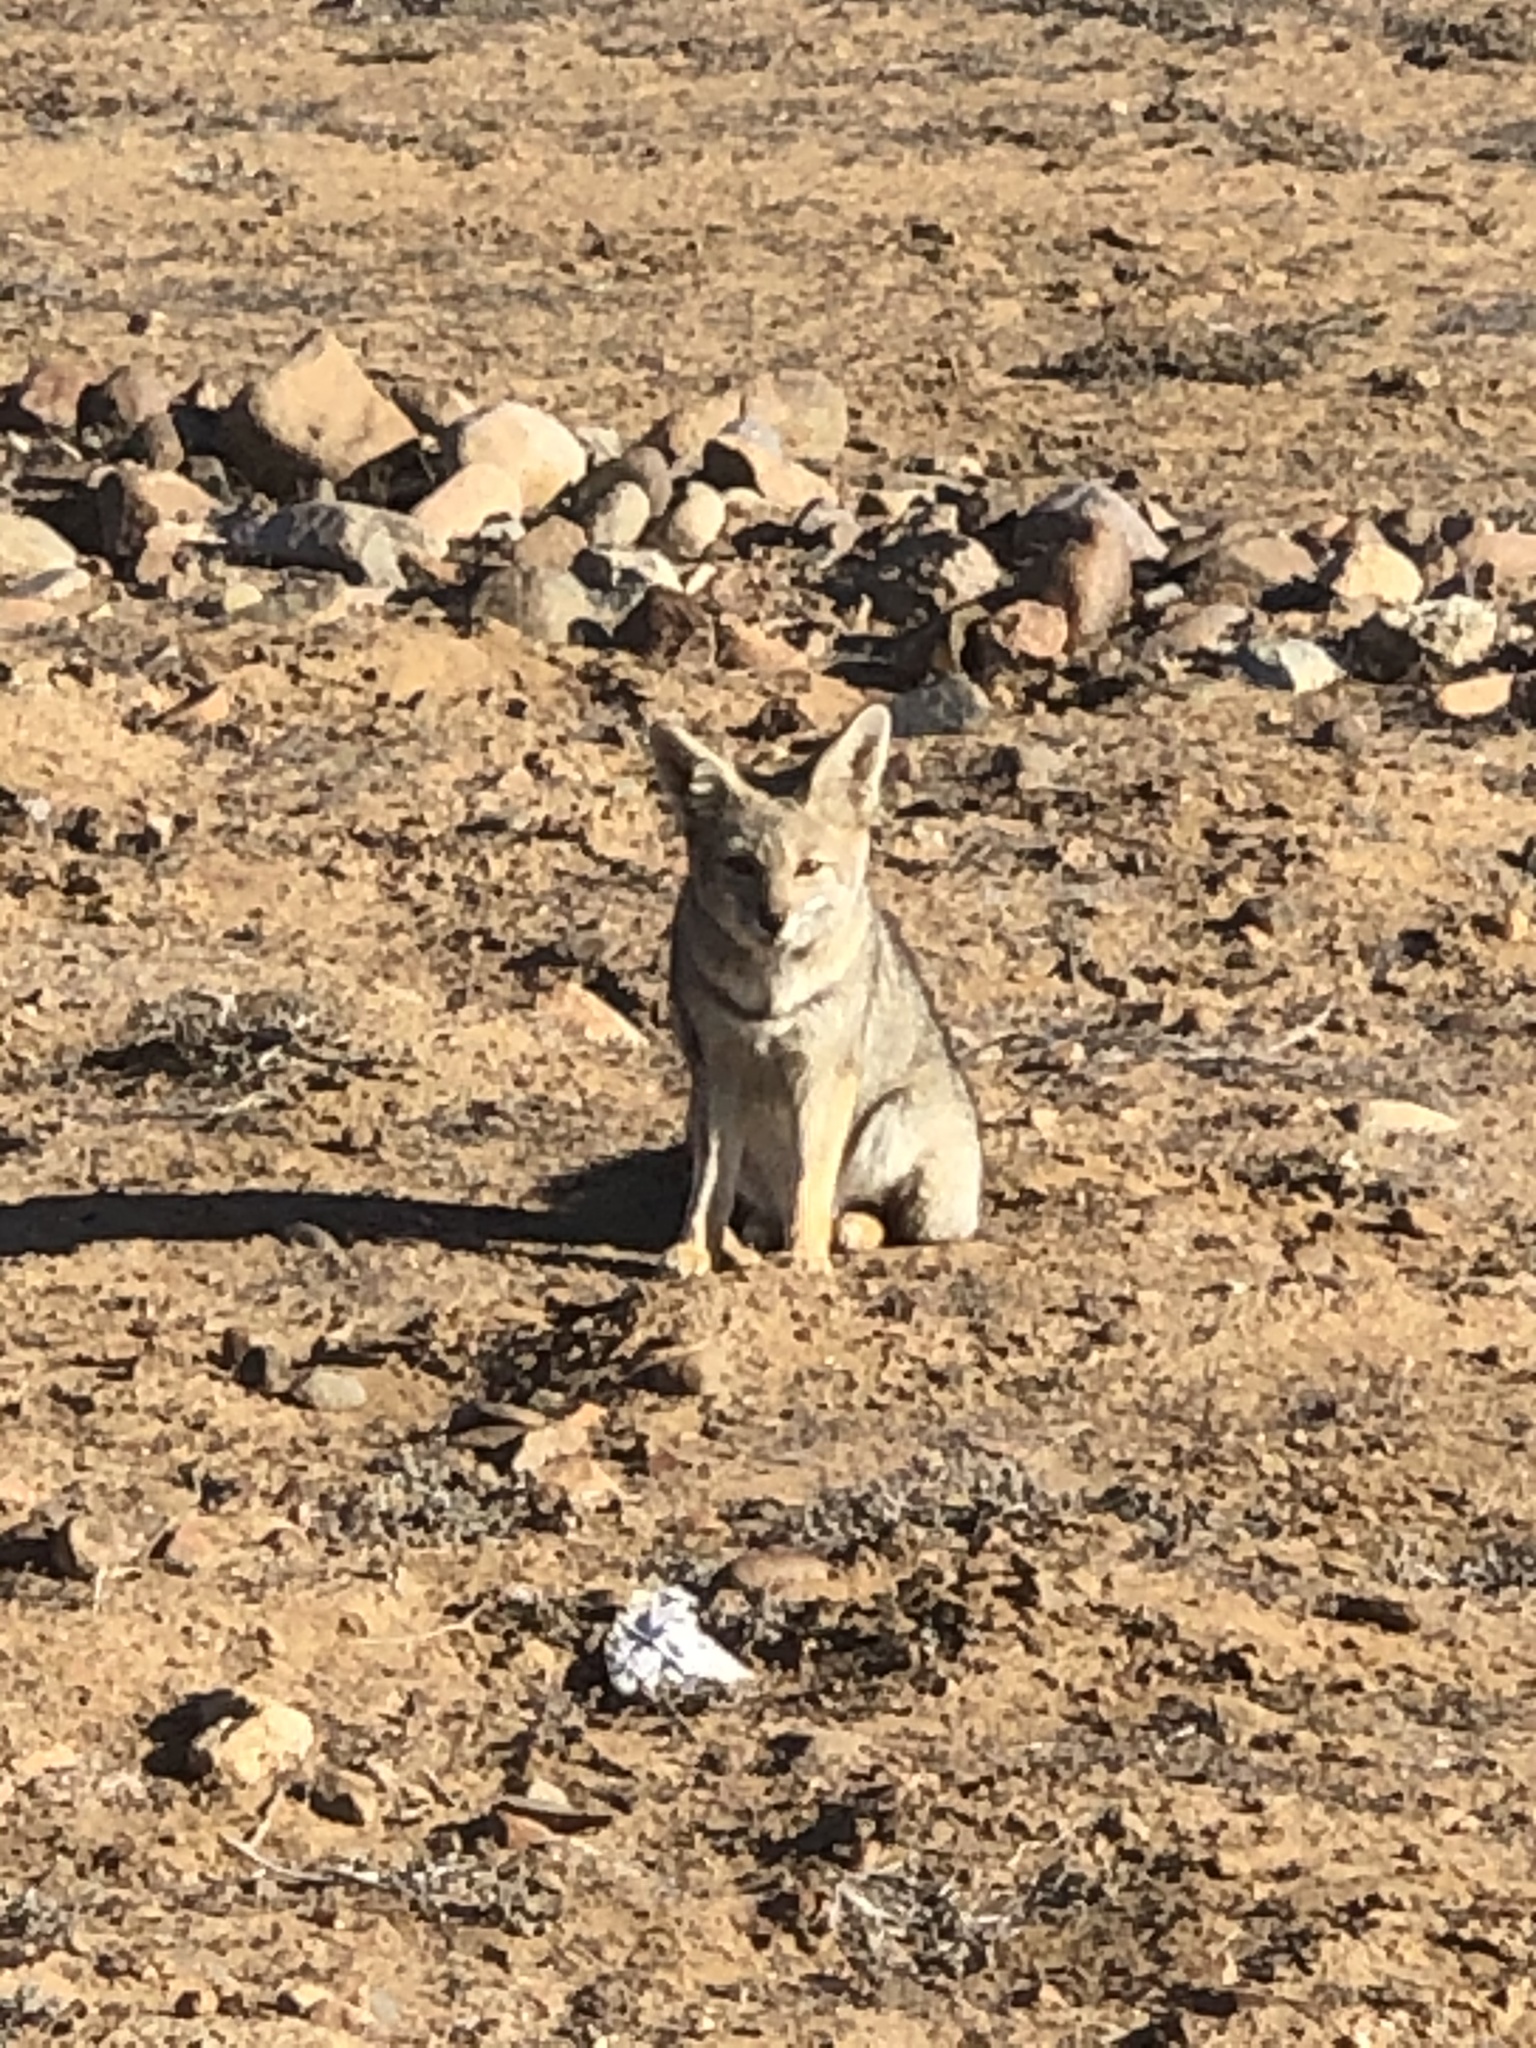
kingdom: Animalia
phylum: Chordata
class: Mammalia
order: Carnivora
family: Canidae
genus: Lycalopex
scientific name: Lycalopex gymnocercus
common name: Pampas fox
